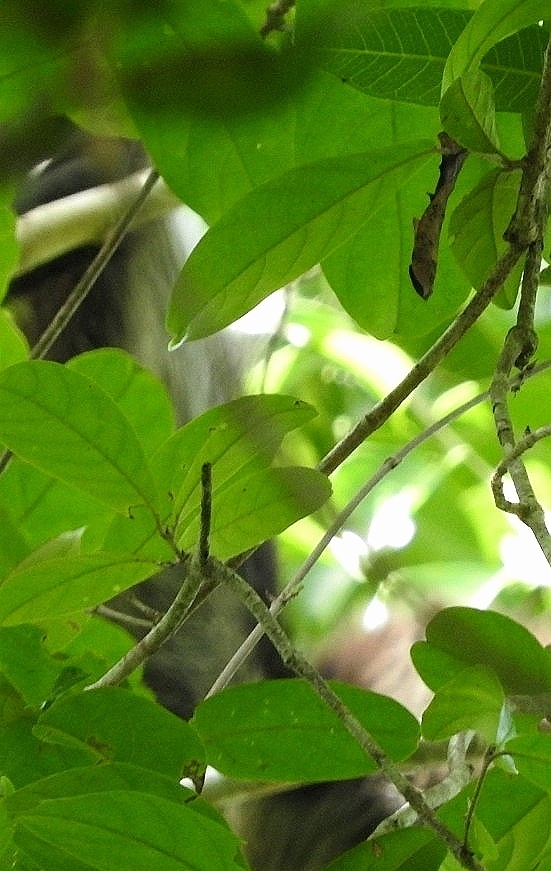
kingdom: Animalia
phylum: Chordata
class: Mammalia
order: Primates
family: Atelidae
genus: Ateles
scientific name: Ateles geoffroyi
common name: Black-handed spider monkey
